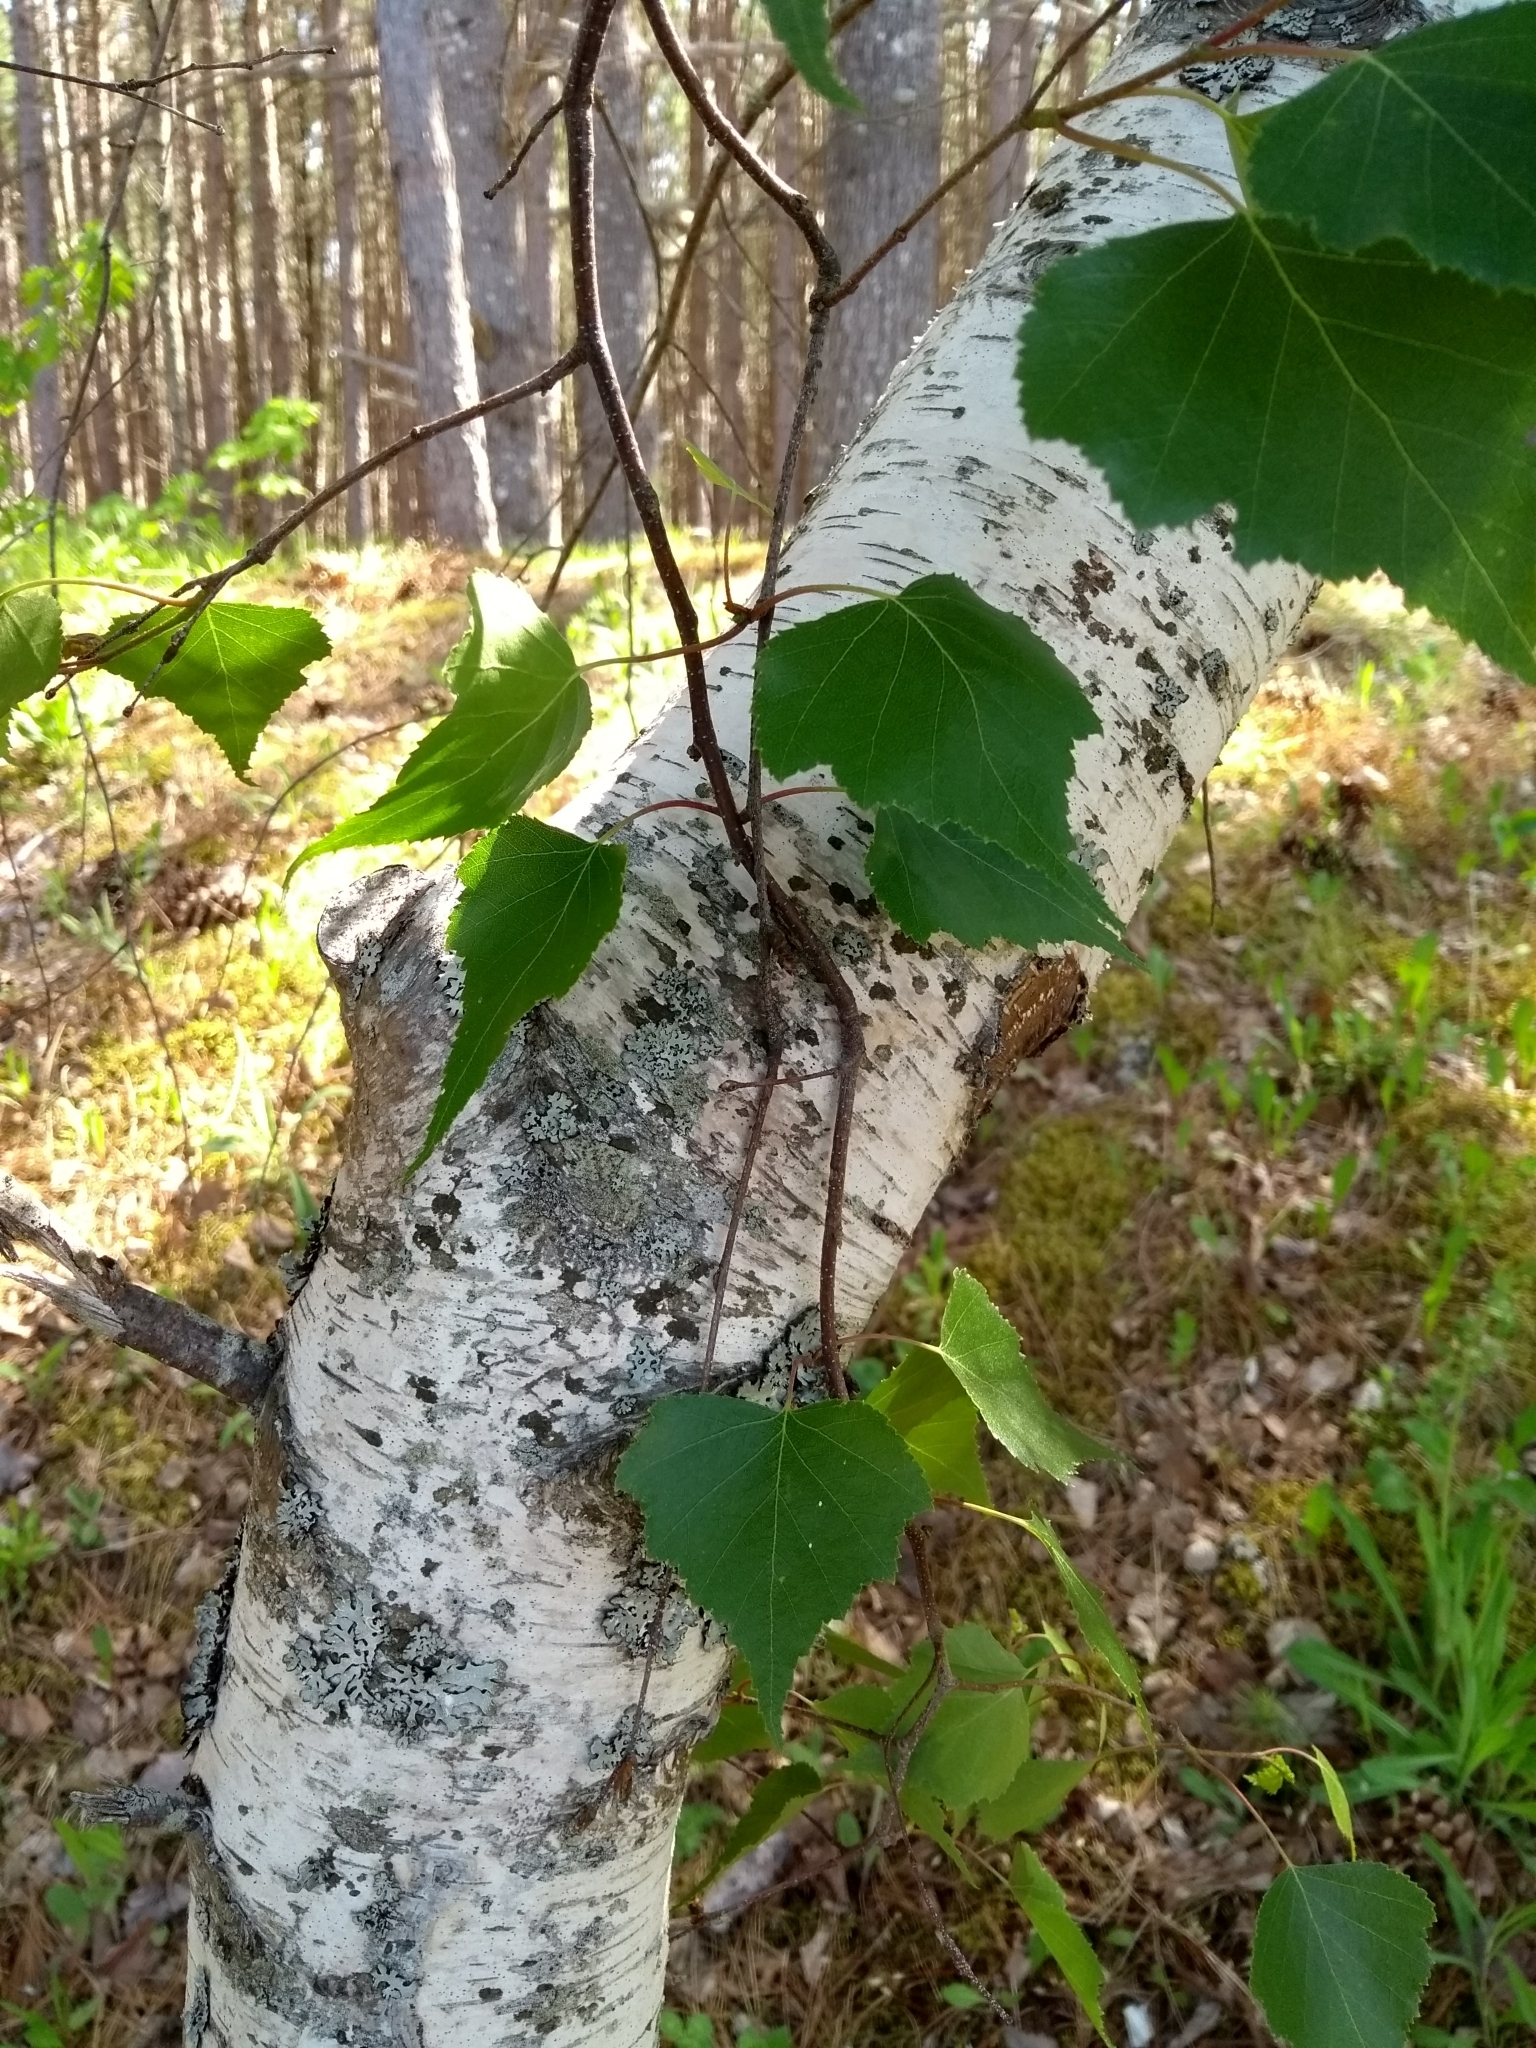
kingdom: Plantae
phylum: Tracheophyta
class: Magnoliopsida
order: Fagales
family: Betulaceae
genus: Betula
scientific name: Betula populifolia
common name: Fire birch
